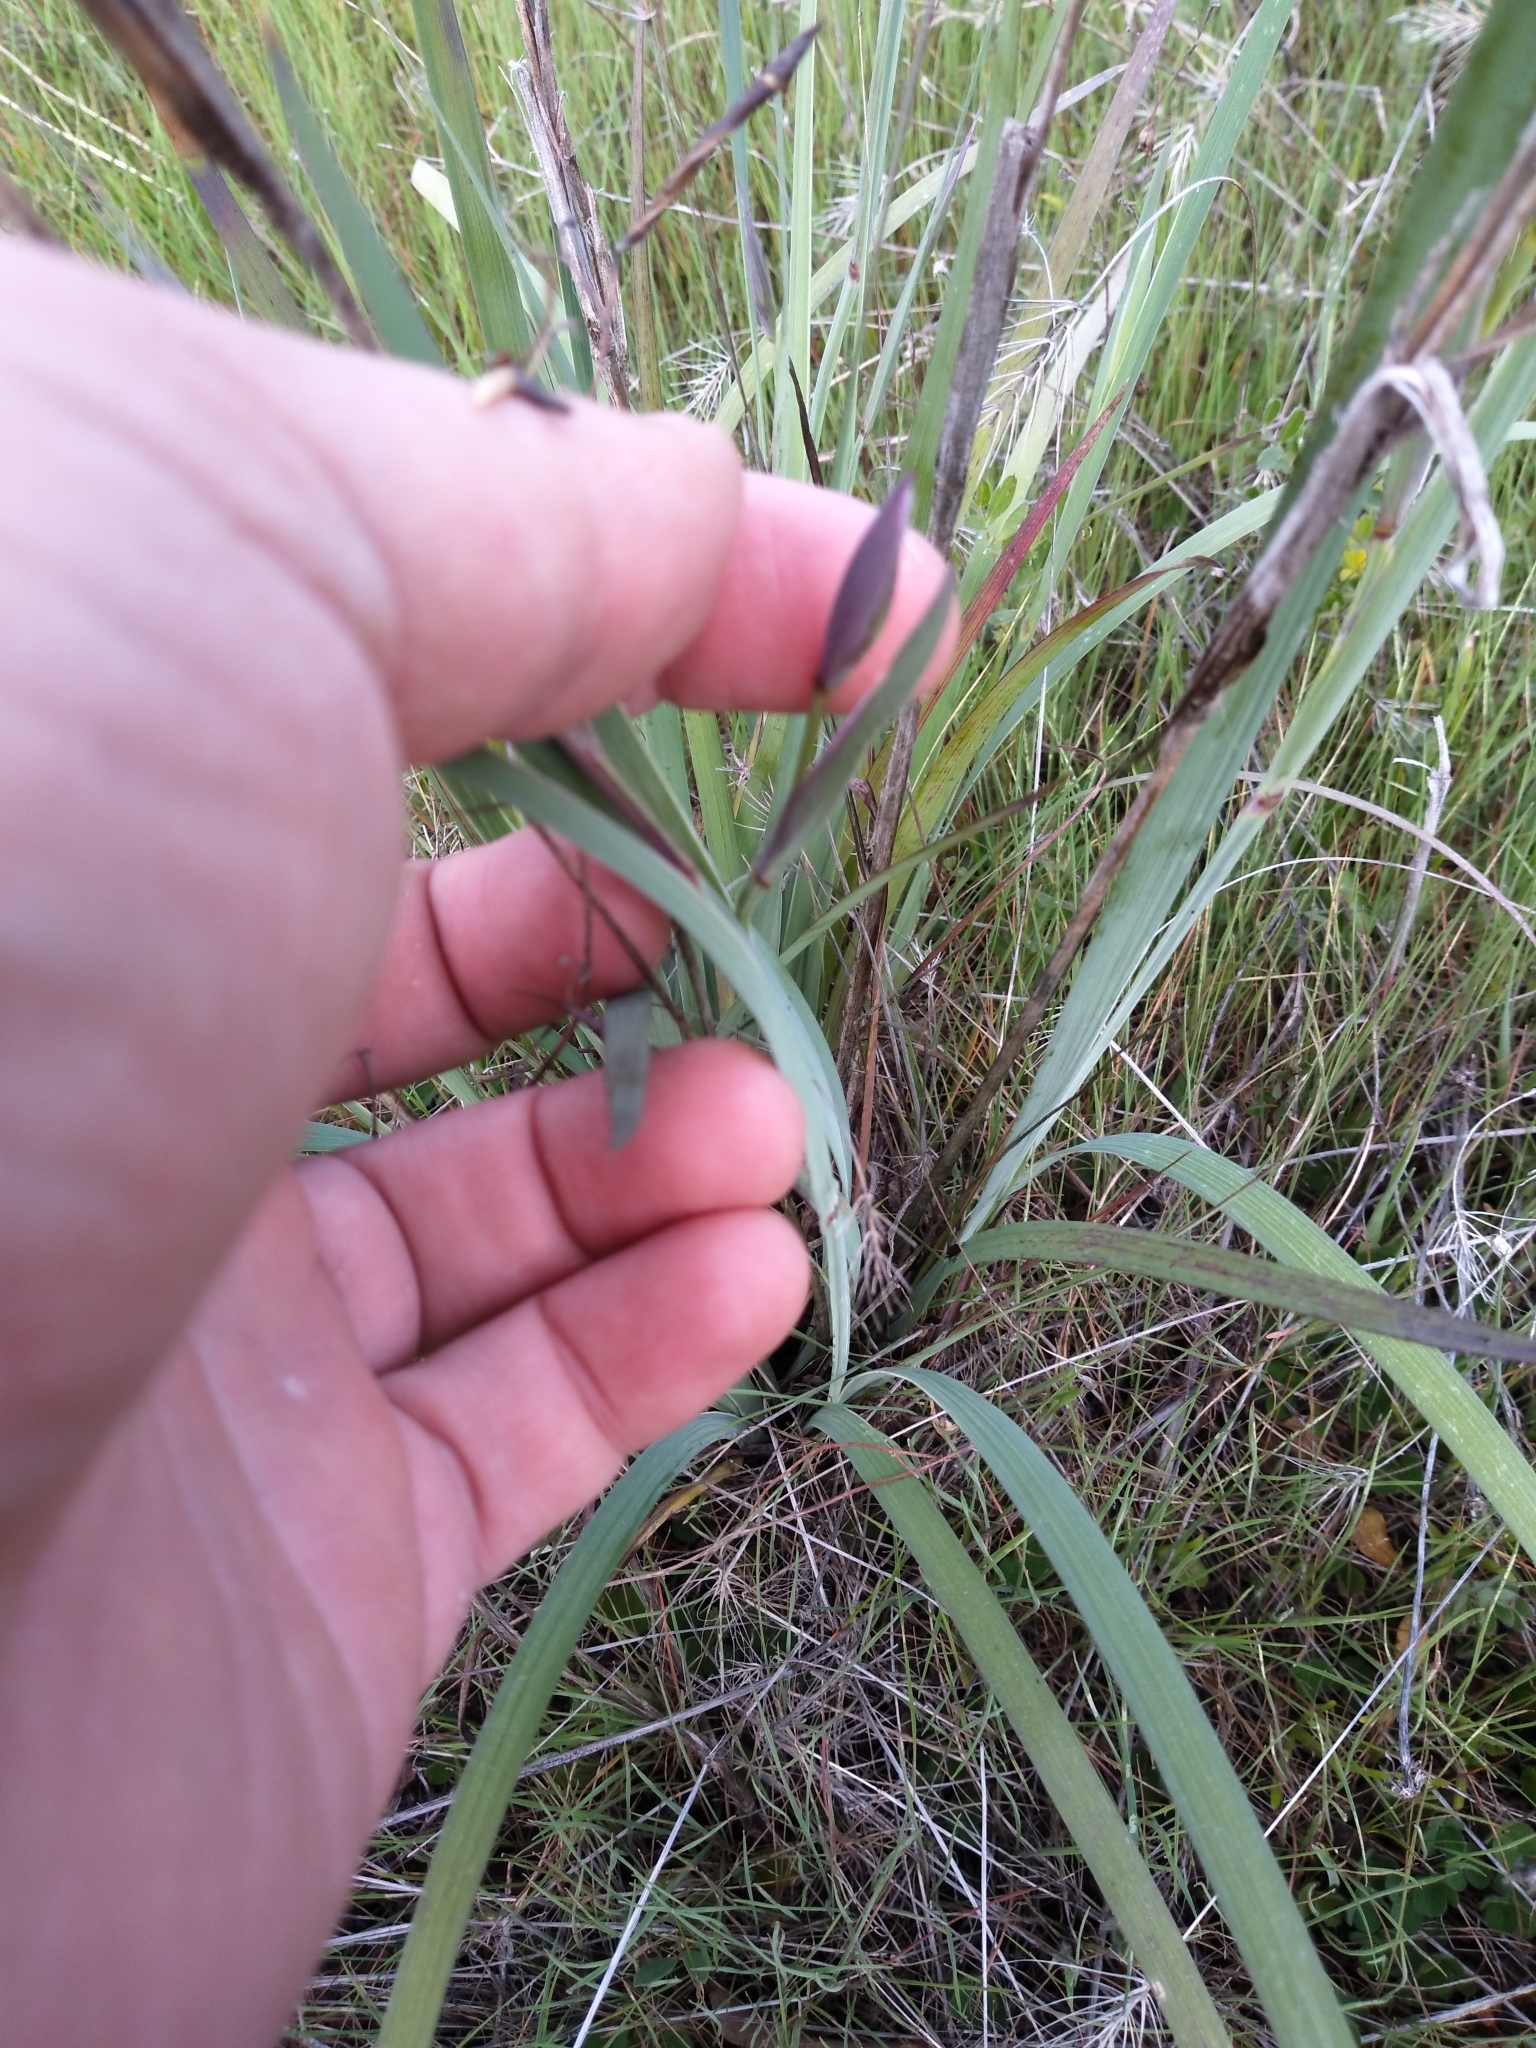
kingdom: Plantae
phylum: Tracheophyta
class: Liliopsida
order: Asparagales
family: Iridaceae
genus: Sisyrinchium
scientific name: Sisyrinchium bellum
